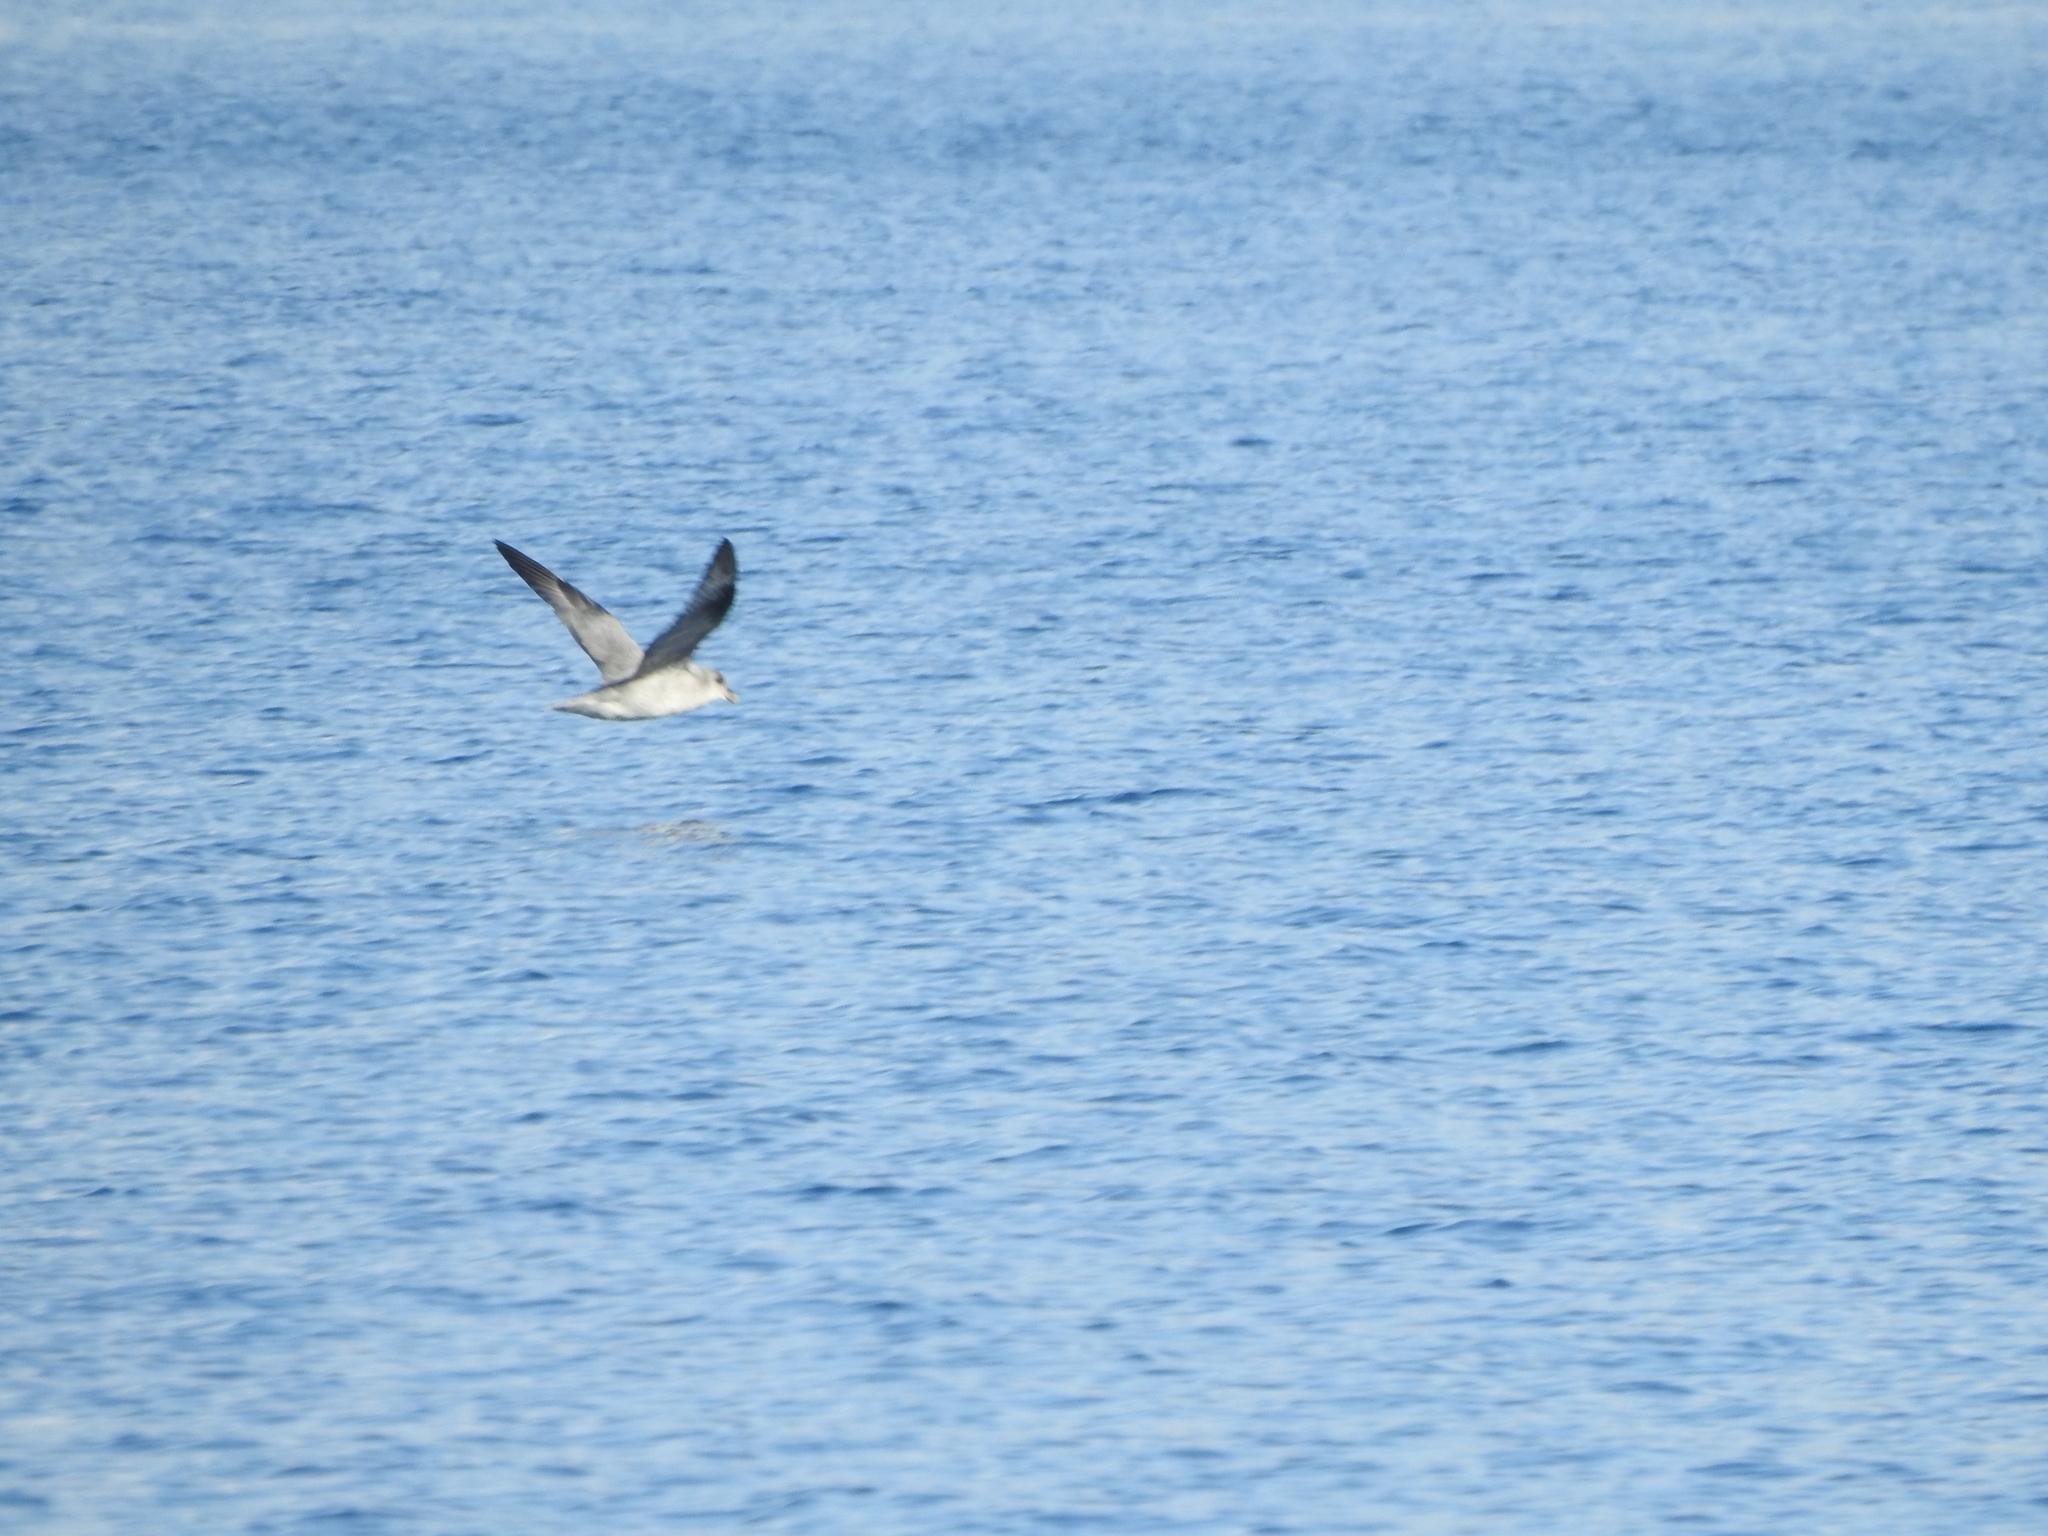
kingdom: Animalia
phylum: Chordata
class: Aves
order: Procellariiformes
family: Procellariidae
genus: Fulmarus
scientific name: Fulmarus glacialis
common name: Northern fulmar
